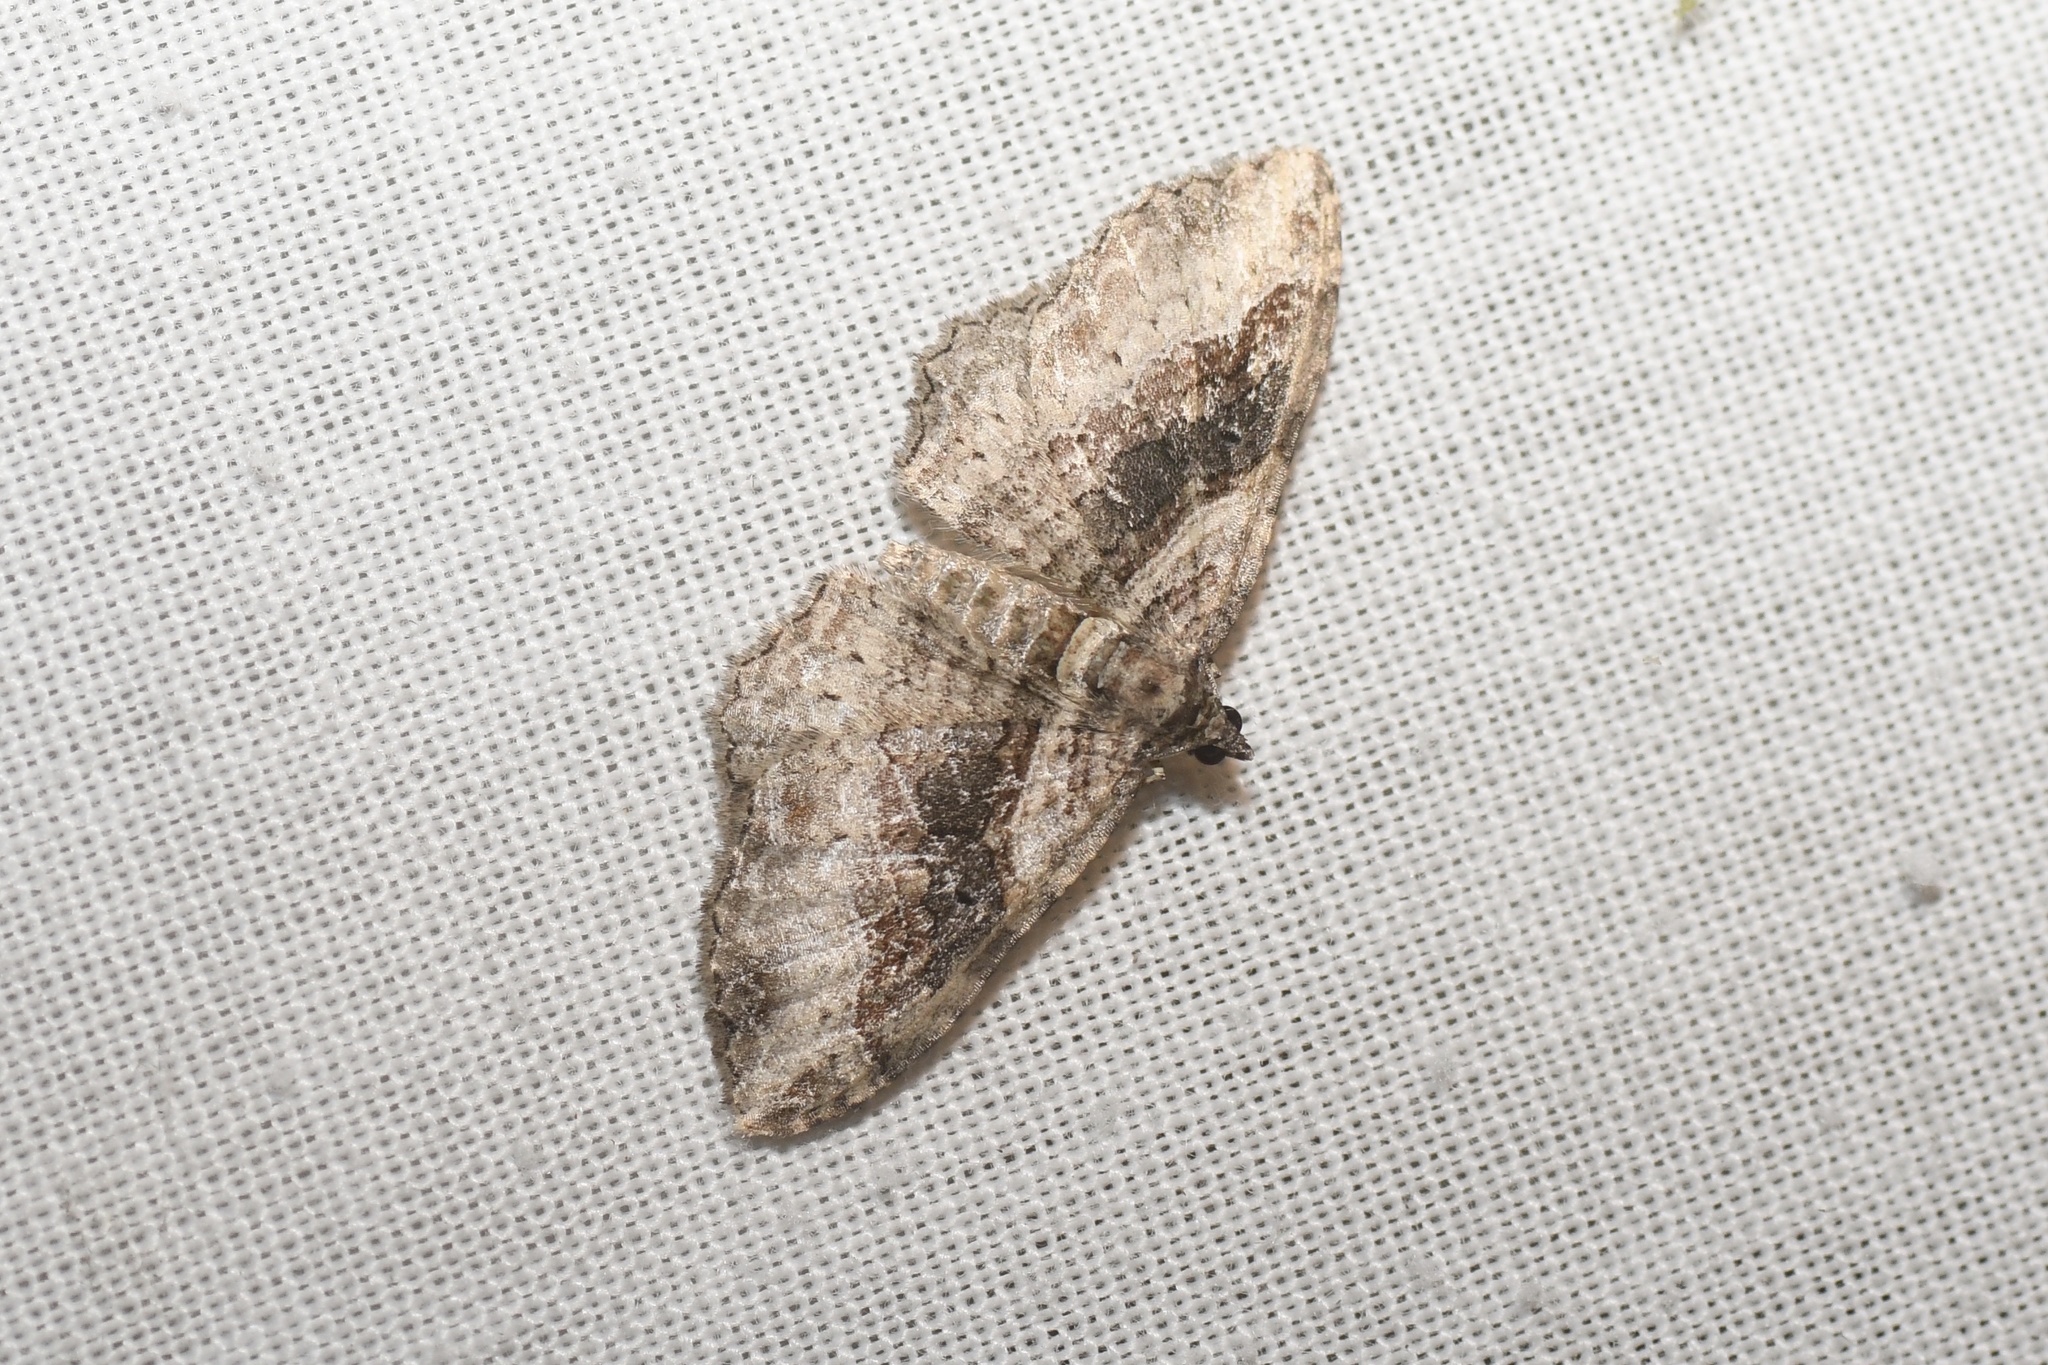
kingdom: Animalia
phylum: Arthropoda
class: Insecta
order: Lepidoptera
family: Geometridae
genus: Costaconvexa
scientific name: Costaconvexa centrostrigaria
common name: Bent-line carpet
